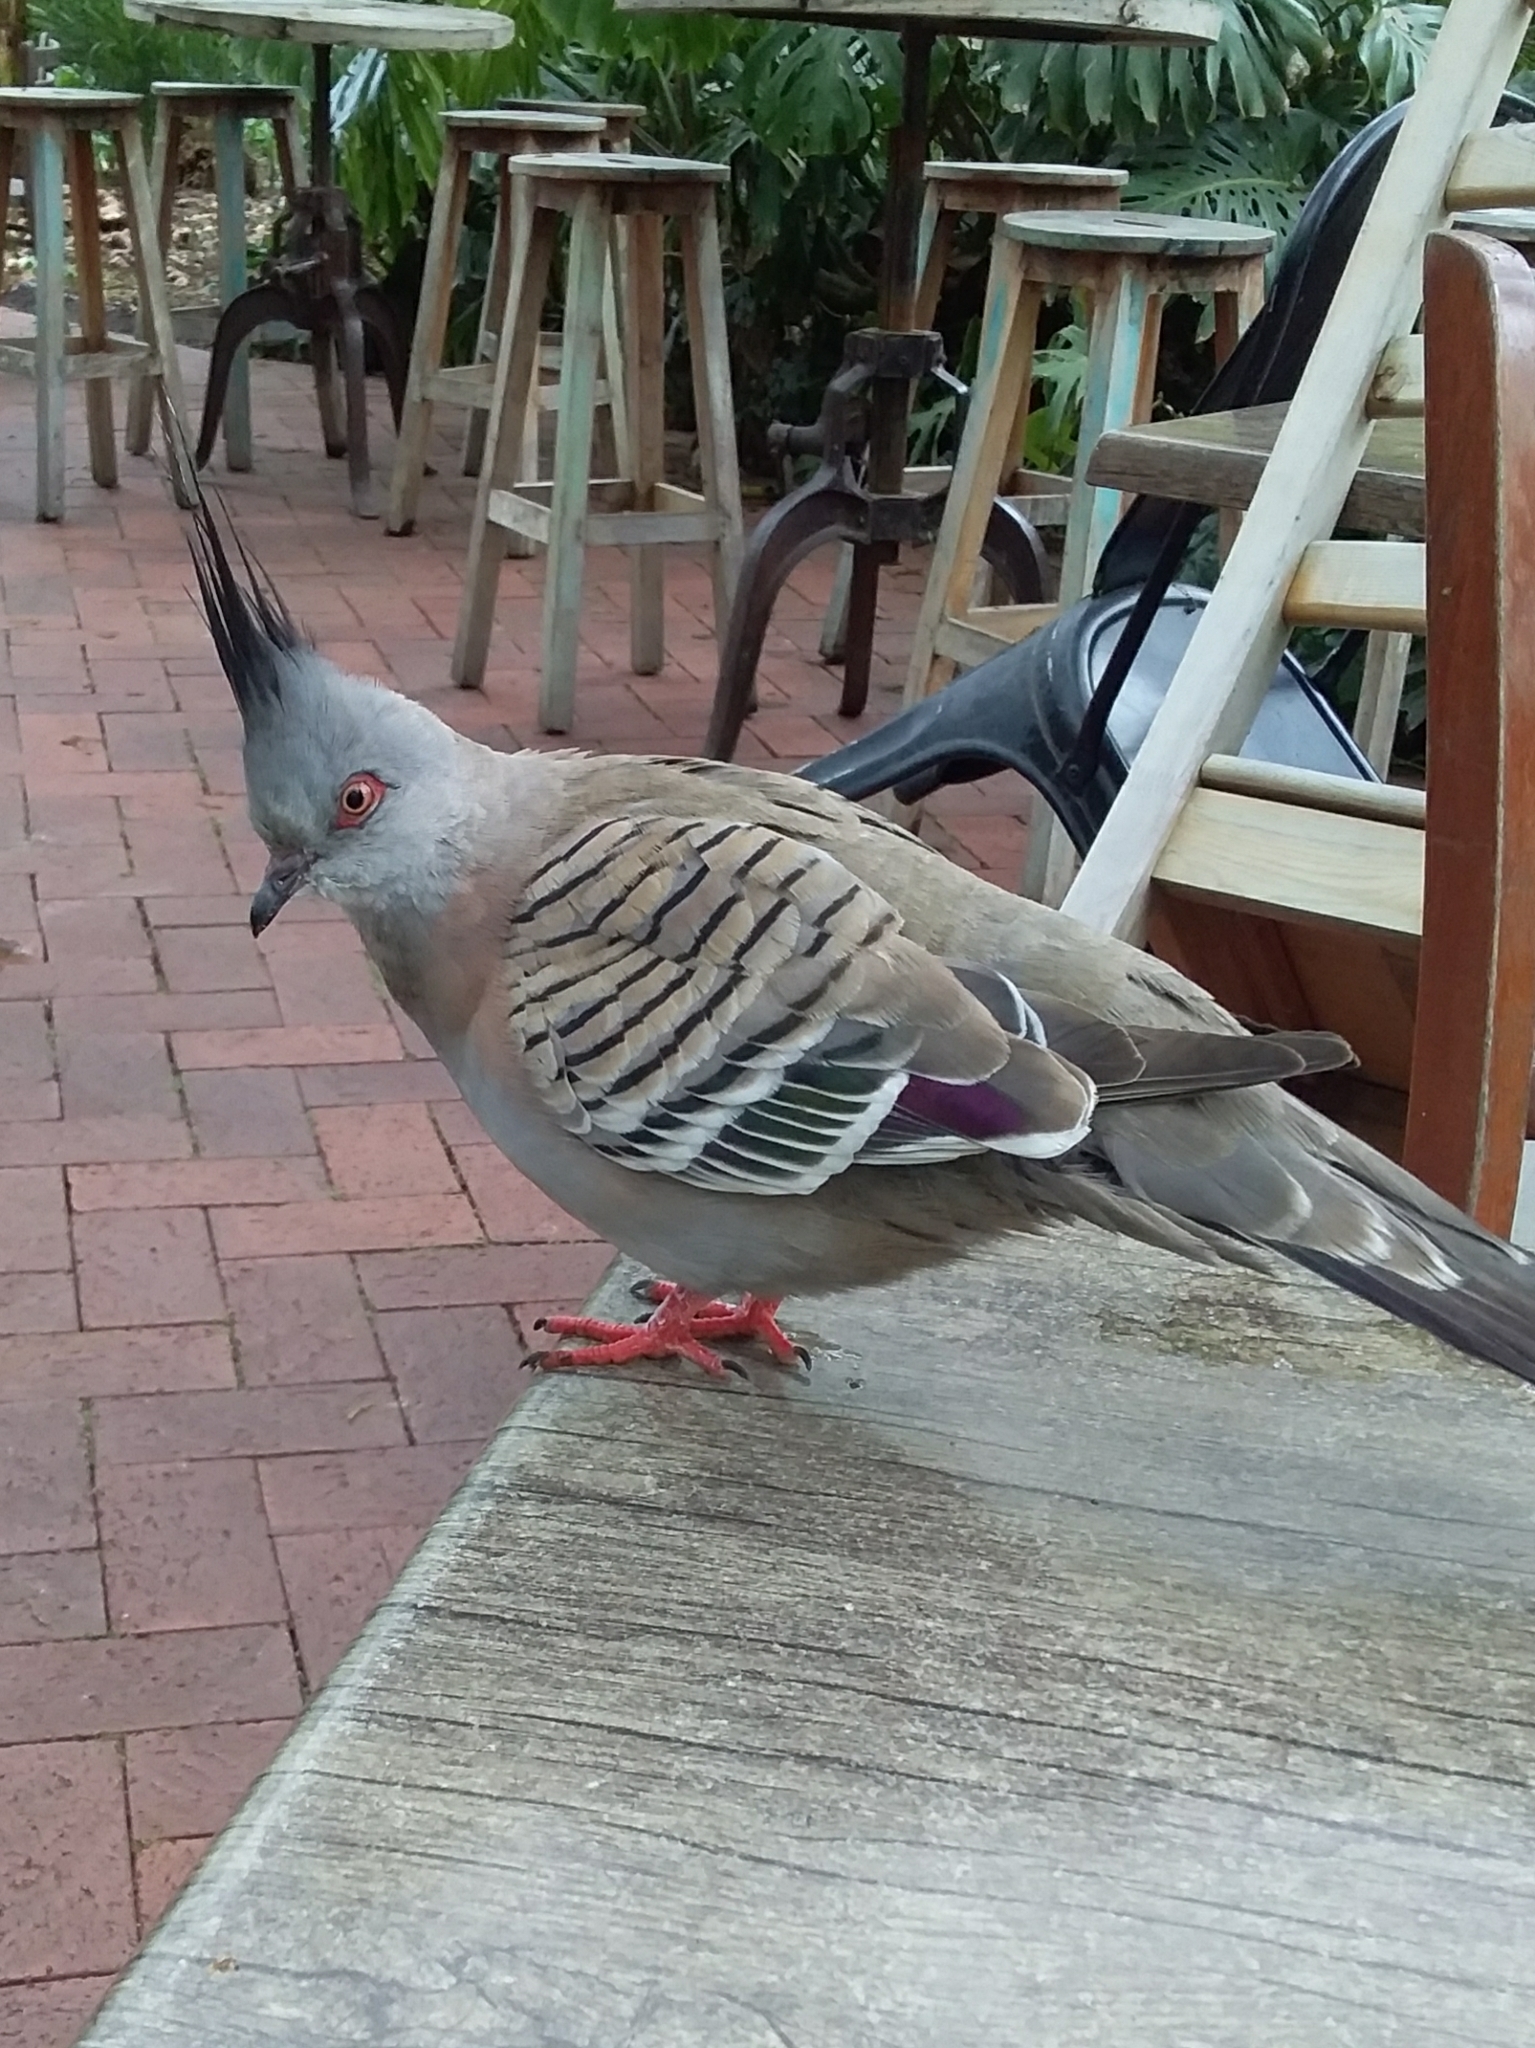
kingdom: Animalia
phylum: Chordata
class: Aves
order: Columbiformes
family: Columbidae
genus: Ocyphaps
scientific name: Ocyphaps lophotes
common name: Crested pigeon
